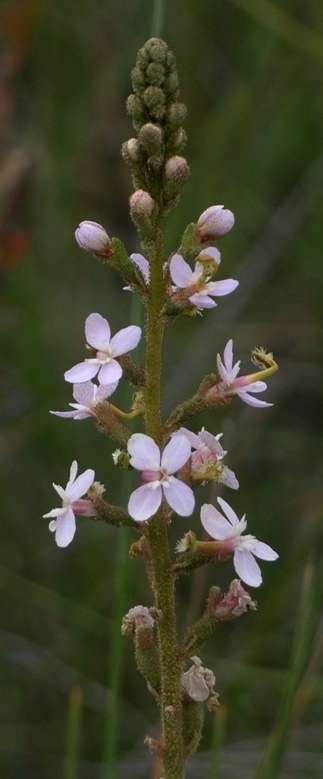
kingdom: Plantae
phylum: Tracheophyta
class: Magnoliopsida
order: Asterales
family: Stylidiaceae
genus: Stylidium
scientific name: Stylidium armeria
